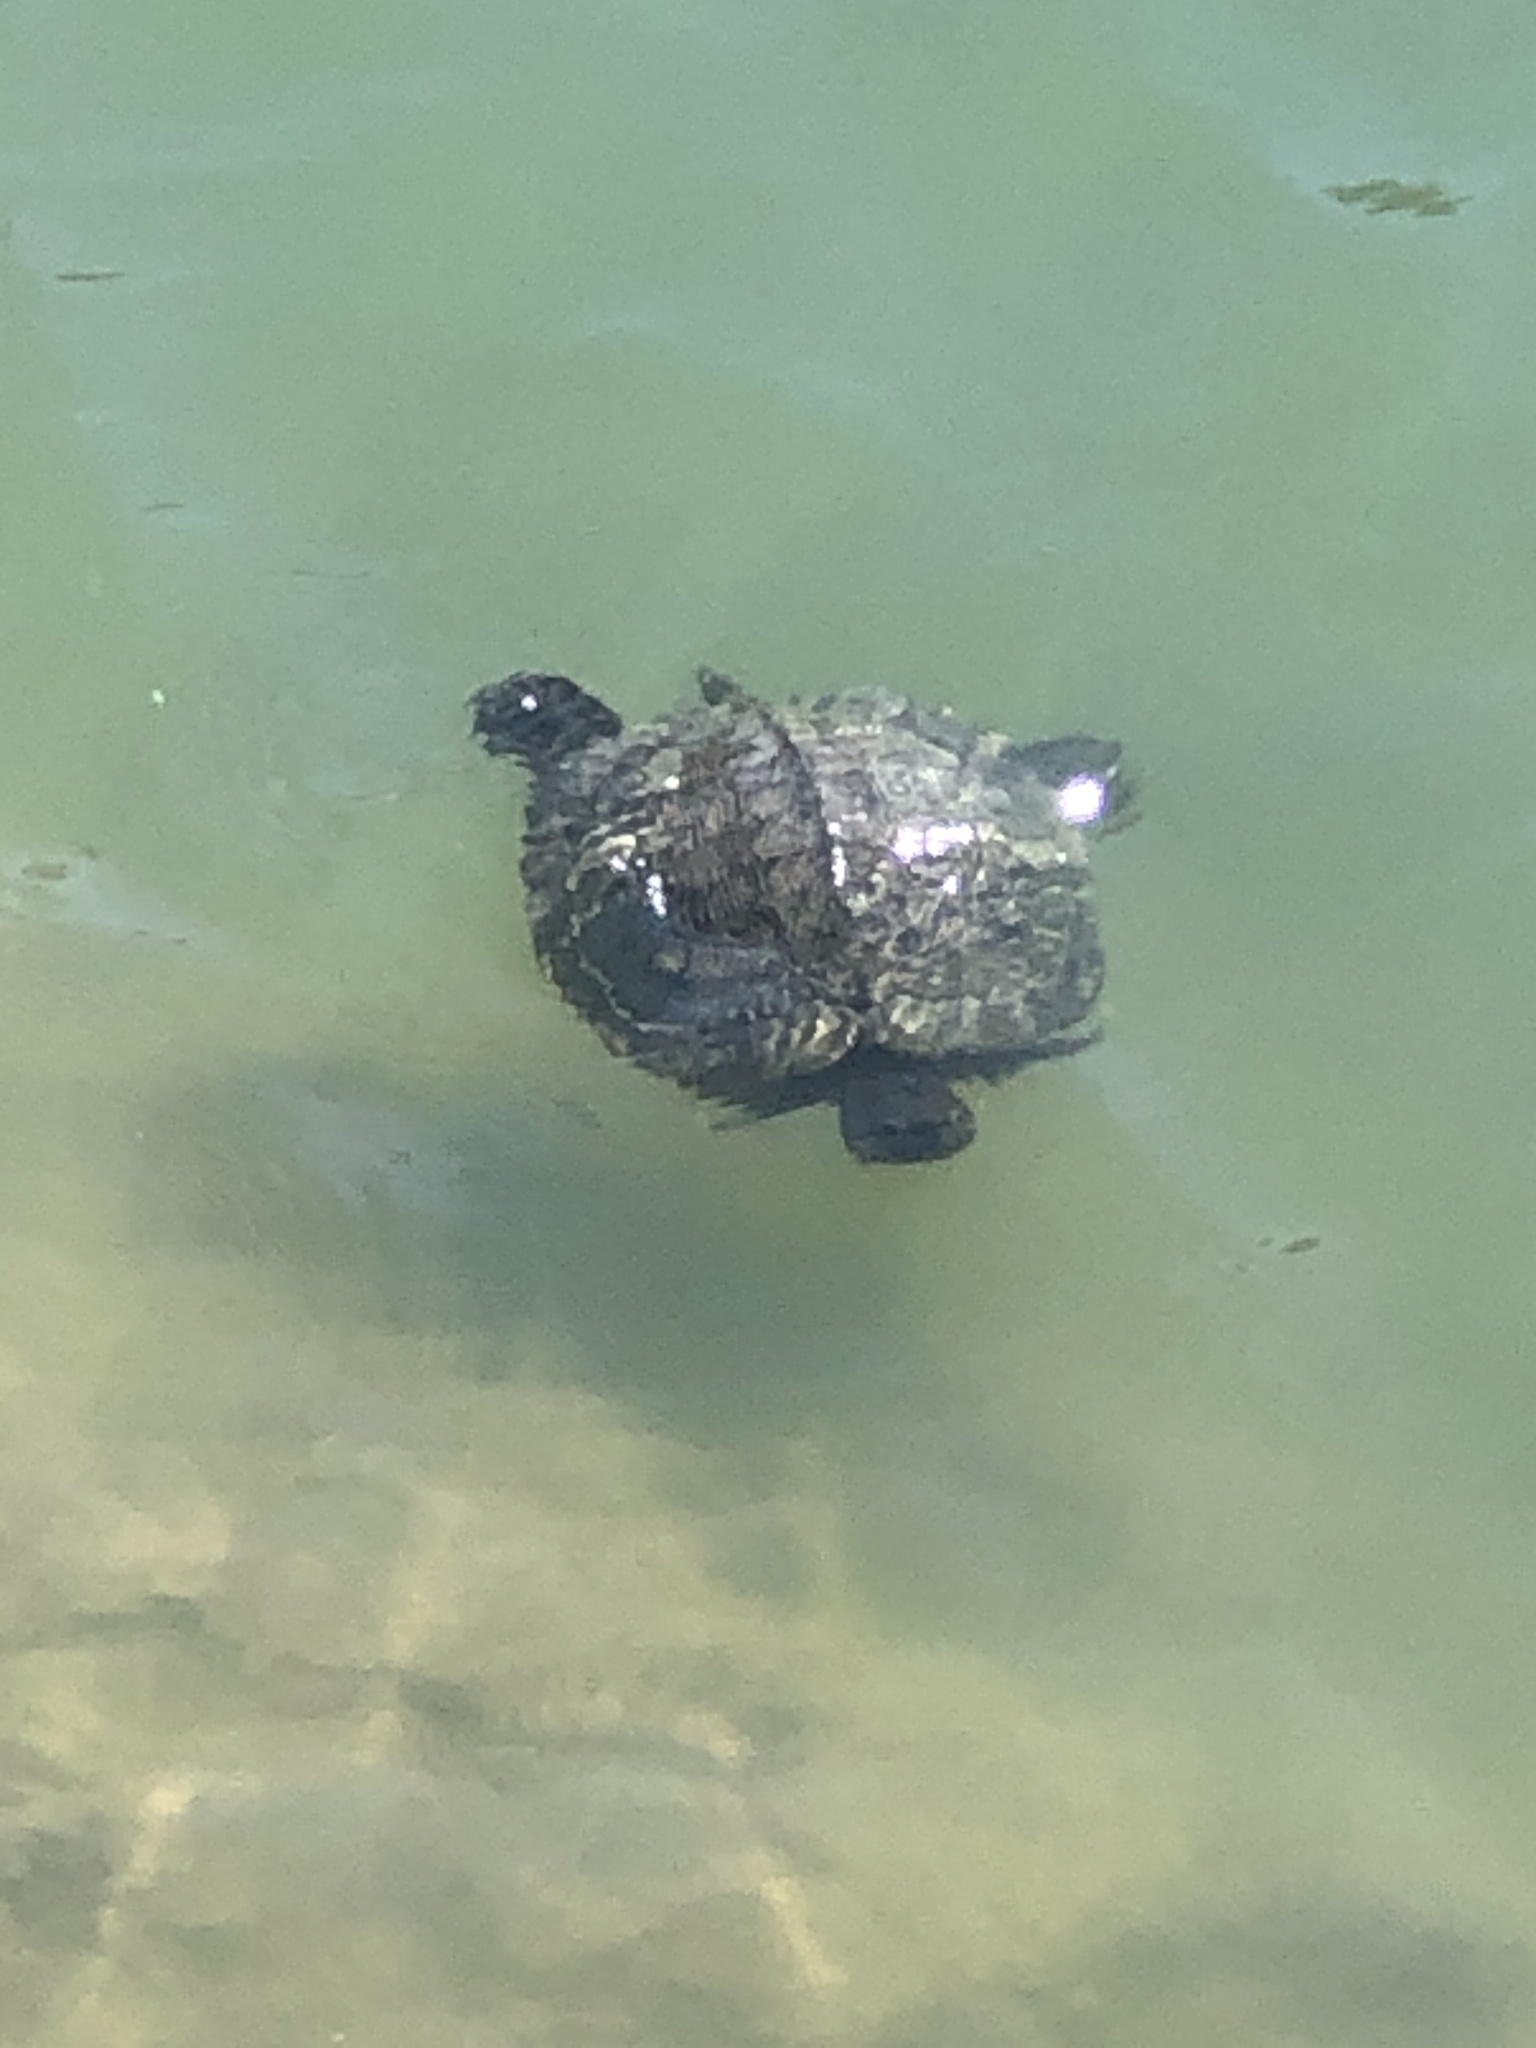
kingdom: Animalia
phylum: Chordata
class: Testudines
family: Emydidae
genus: Trachemys
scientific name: Trachemys scripta
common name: Slider
